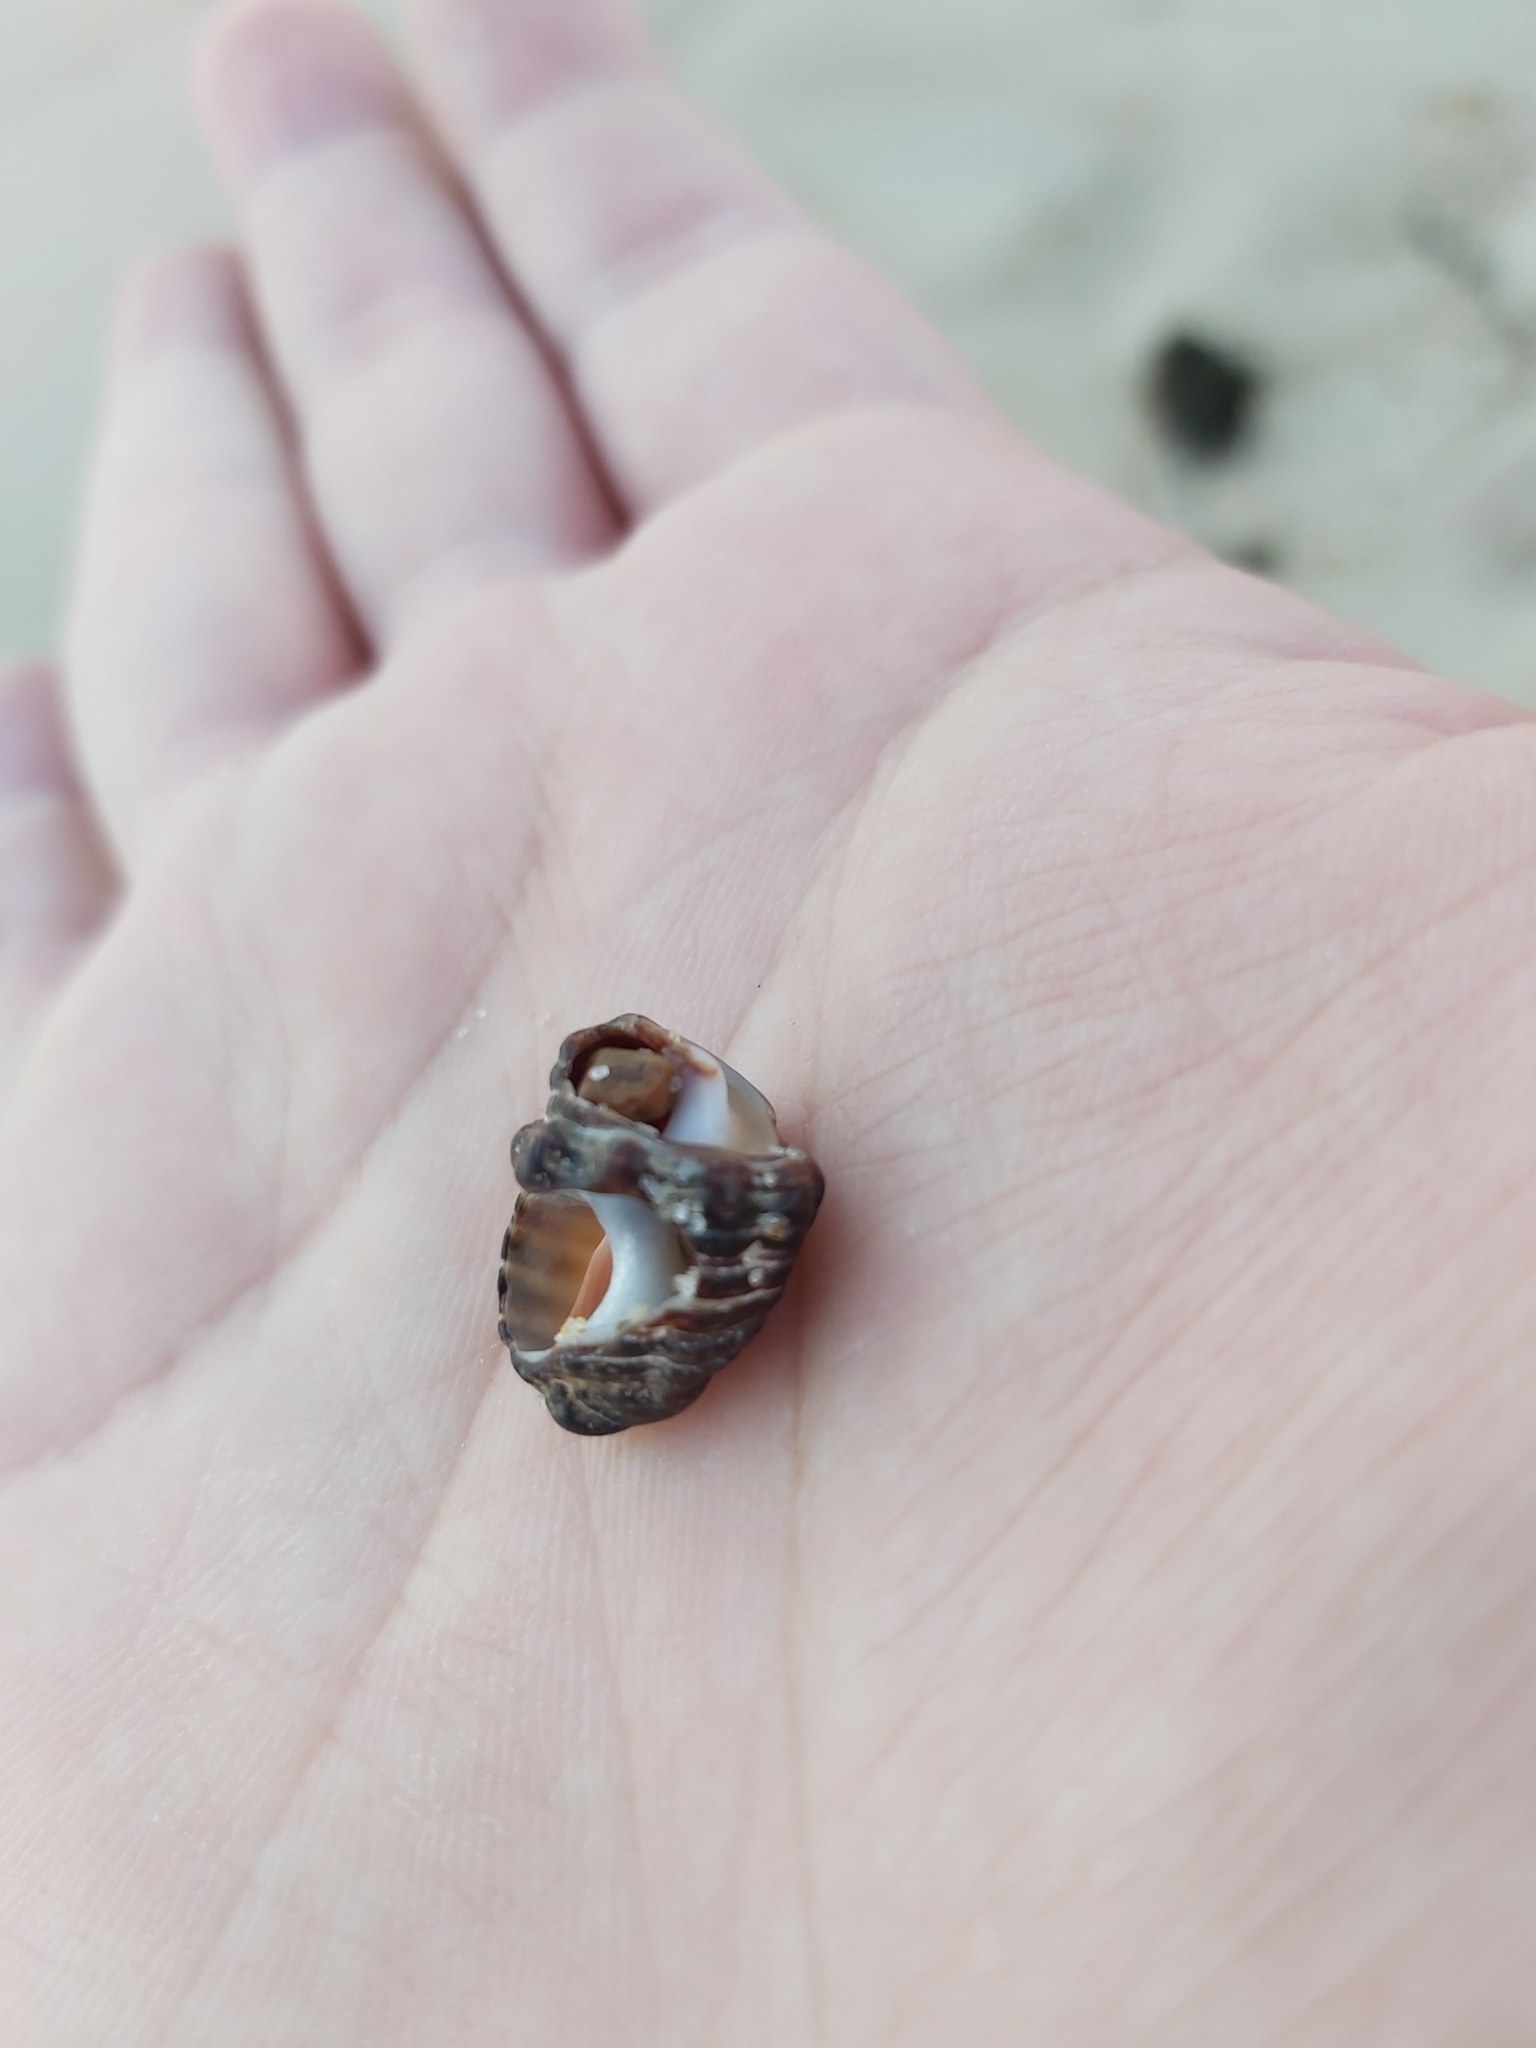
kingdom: Animalia
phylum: Mollusca
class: Gastropoda
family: Batillariidae
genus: Batillaria
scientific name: Batillaria australis
